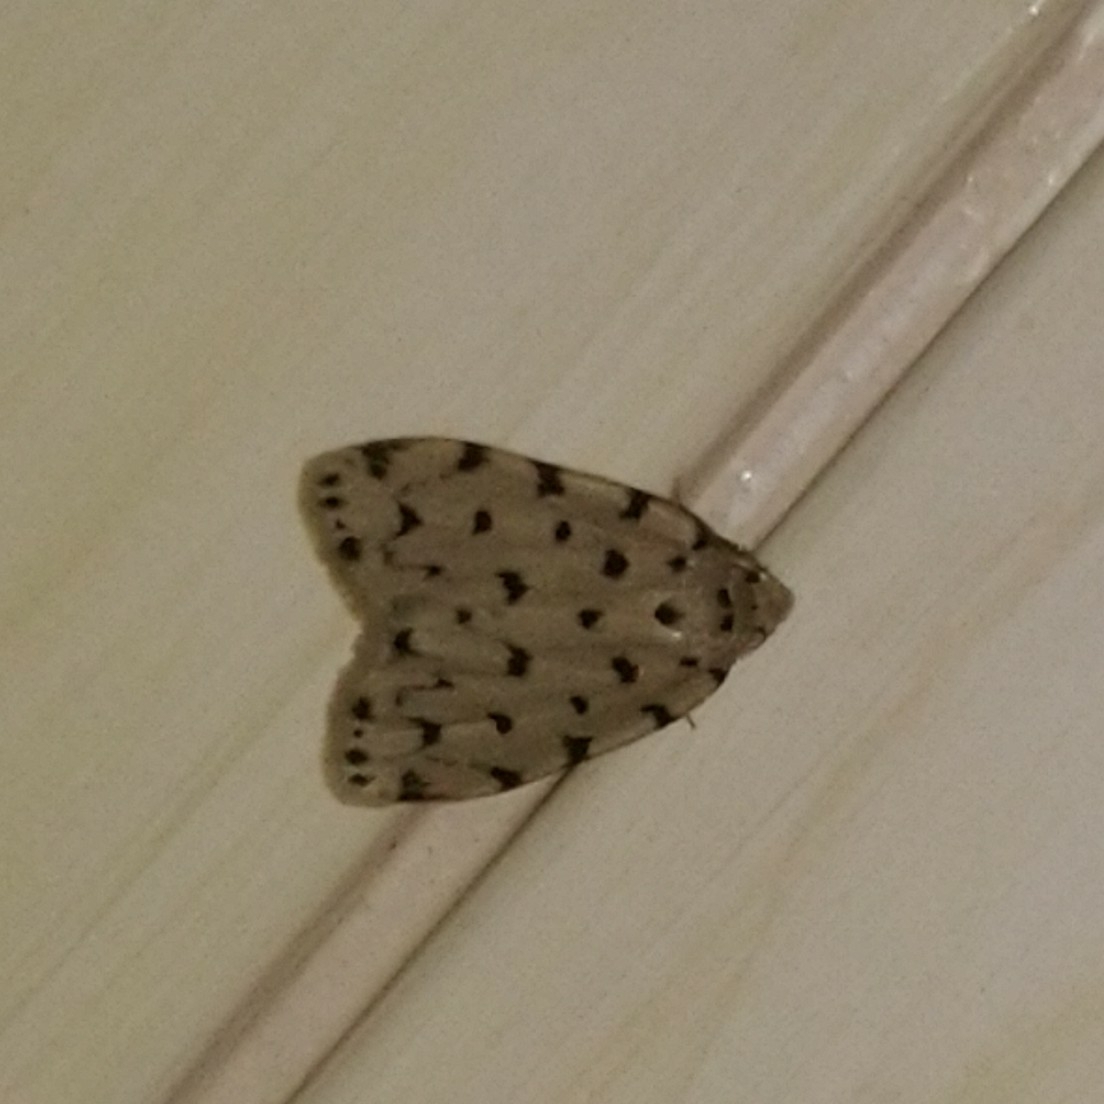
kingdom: Animalia
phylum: Arthropoda
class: Insecta
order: Lepidoptera
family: Erebidae
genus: Siccia
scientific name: Siccia caffra
